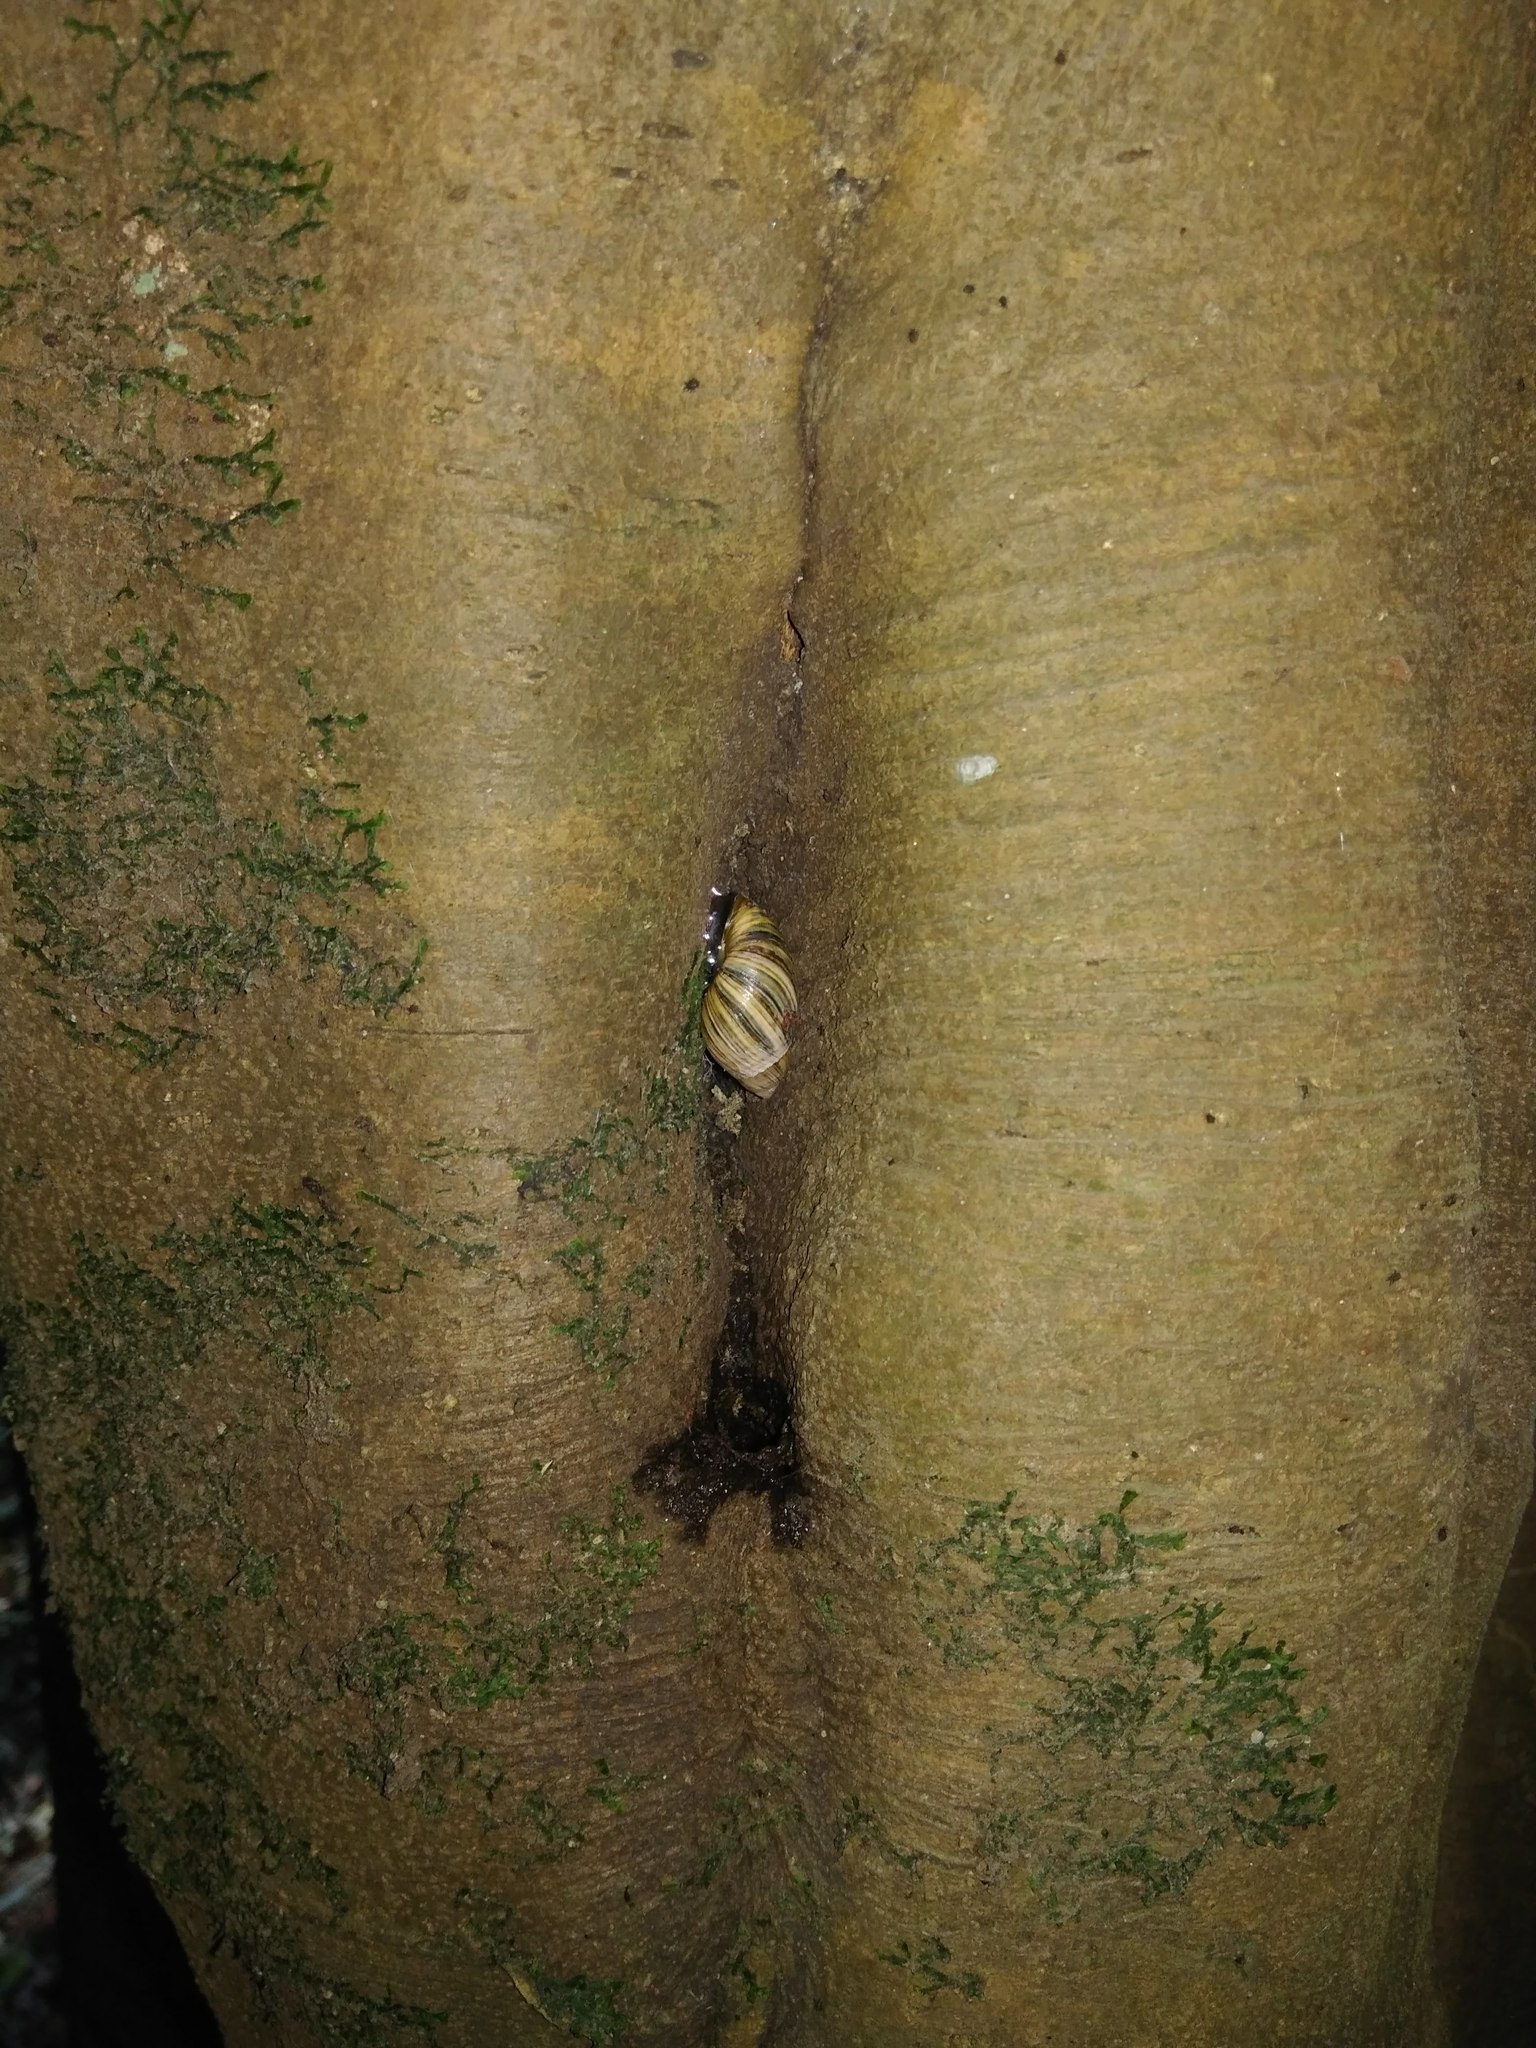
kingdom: Animalia
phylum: Mollusca
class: Gastropoda
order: Stylommatophora
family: Bothriembryontidae
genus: Plectostylus
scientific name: Plectostylus araucanus
